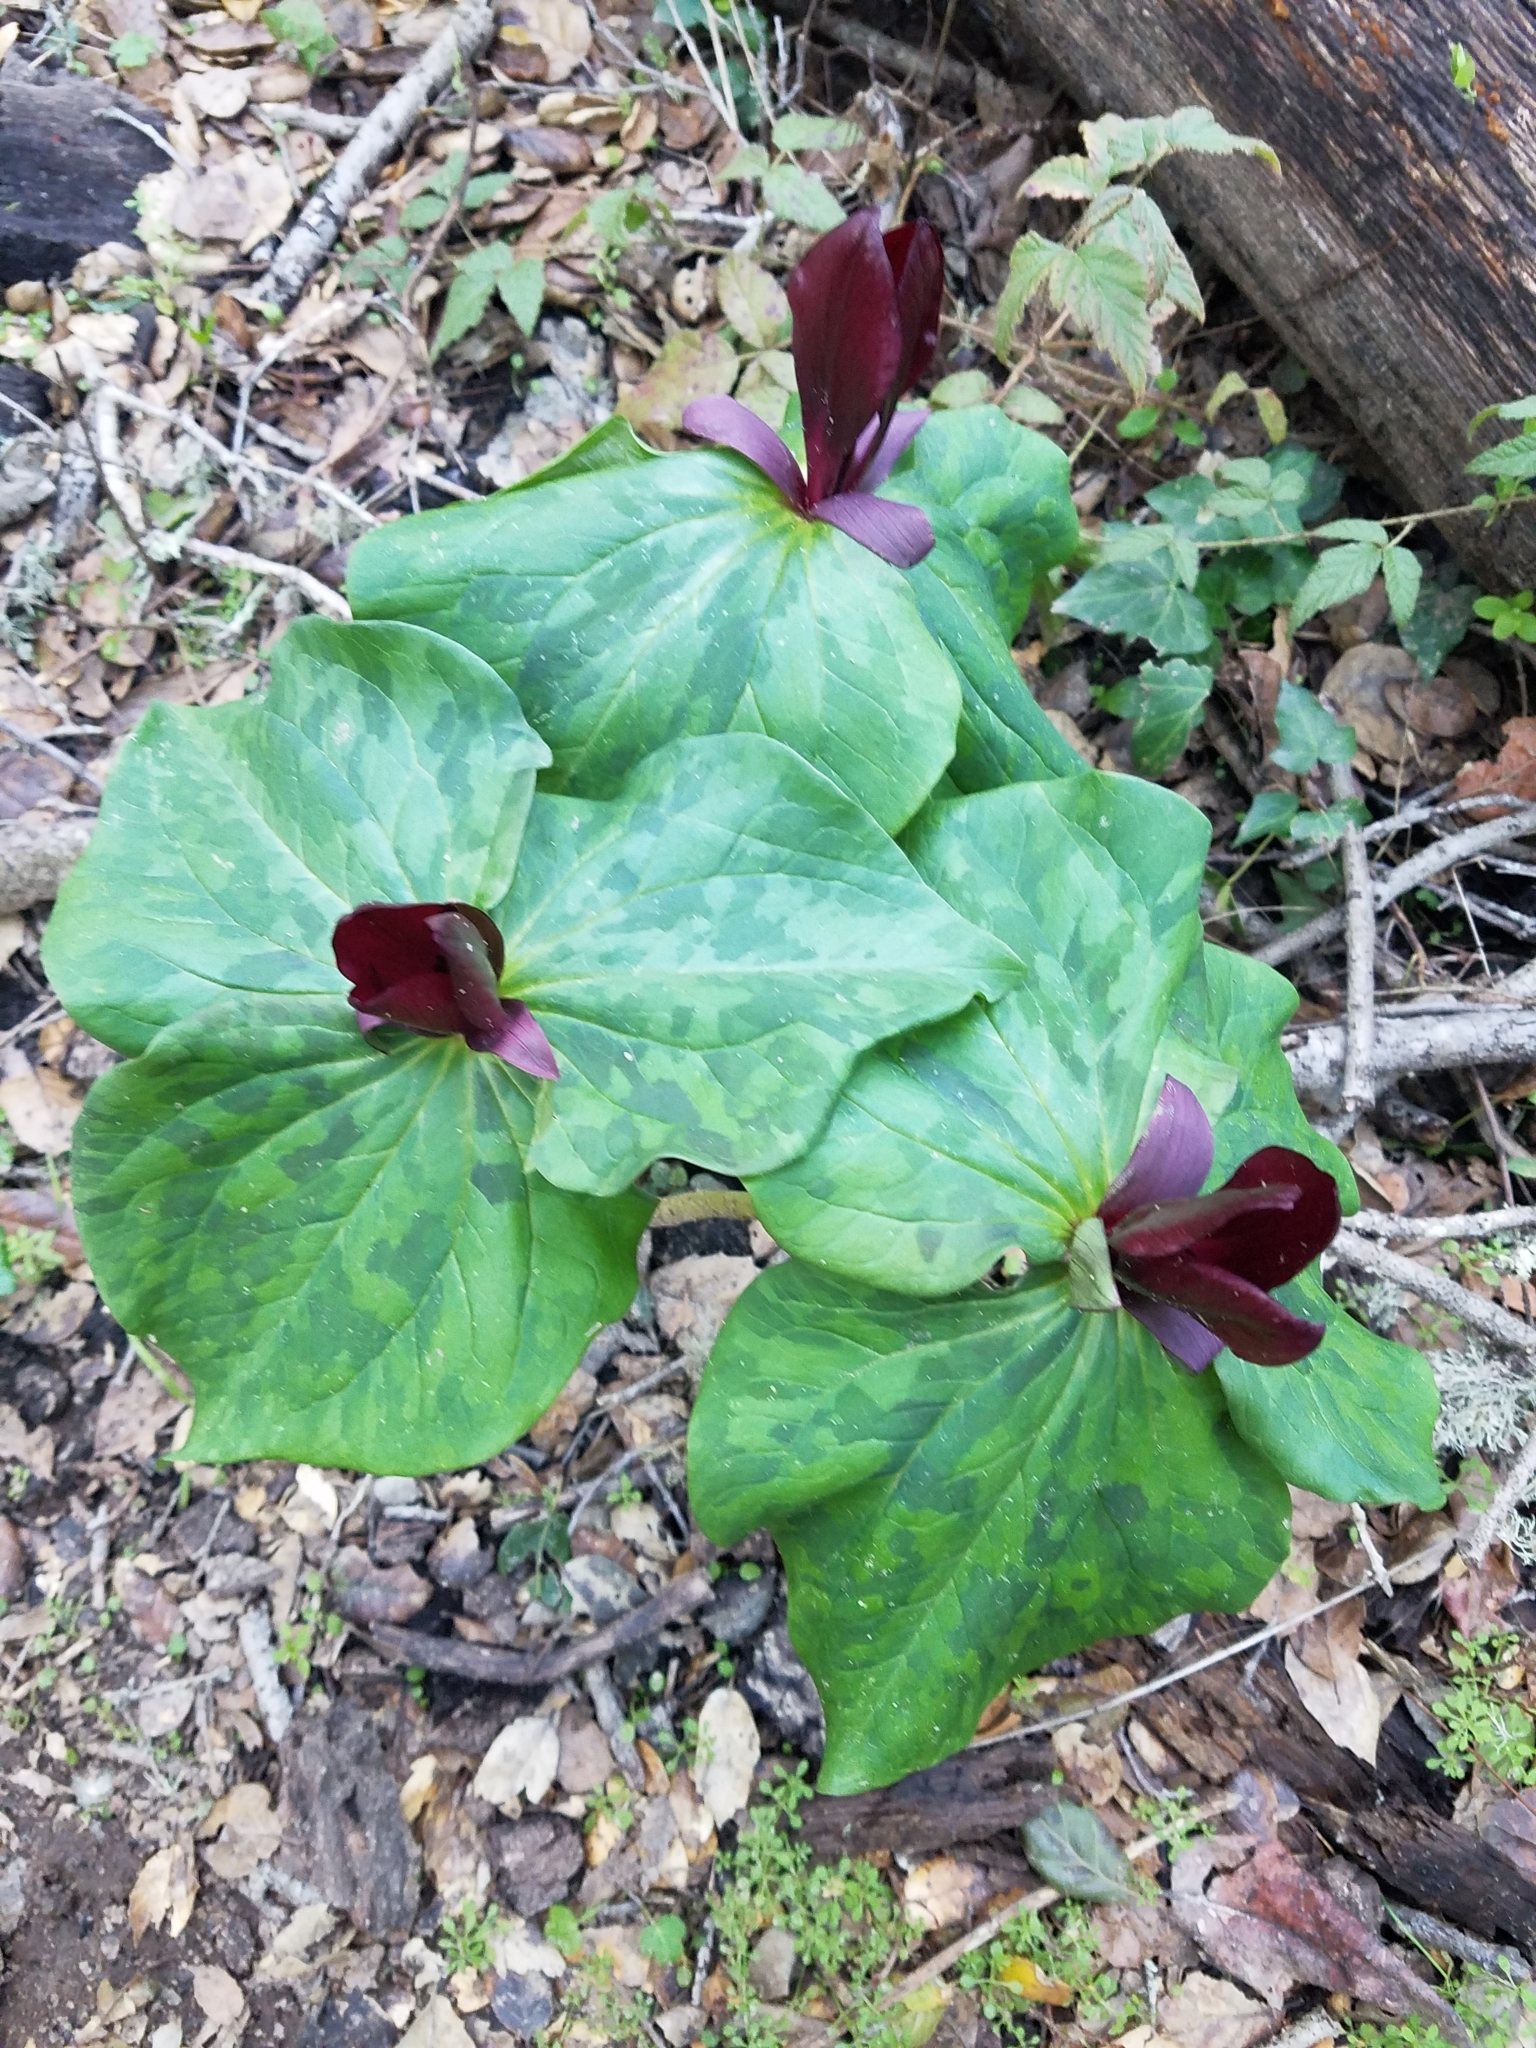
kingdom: Plantae
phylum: Tracheophyta
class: Liliopsida
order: Liliales
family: Melanthiaceae
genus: Trillium
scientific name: Trillium chloropetalum
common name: Giant trillium
